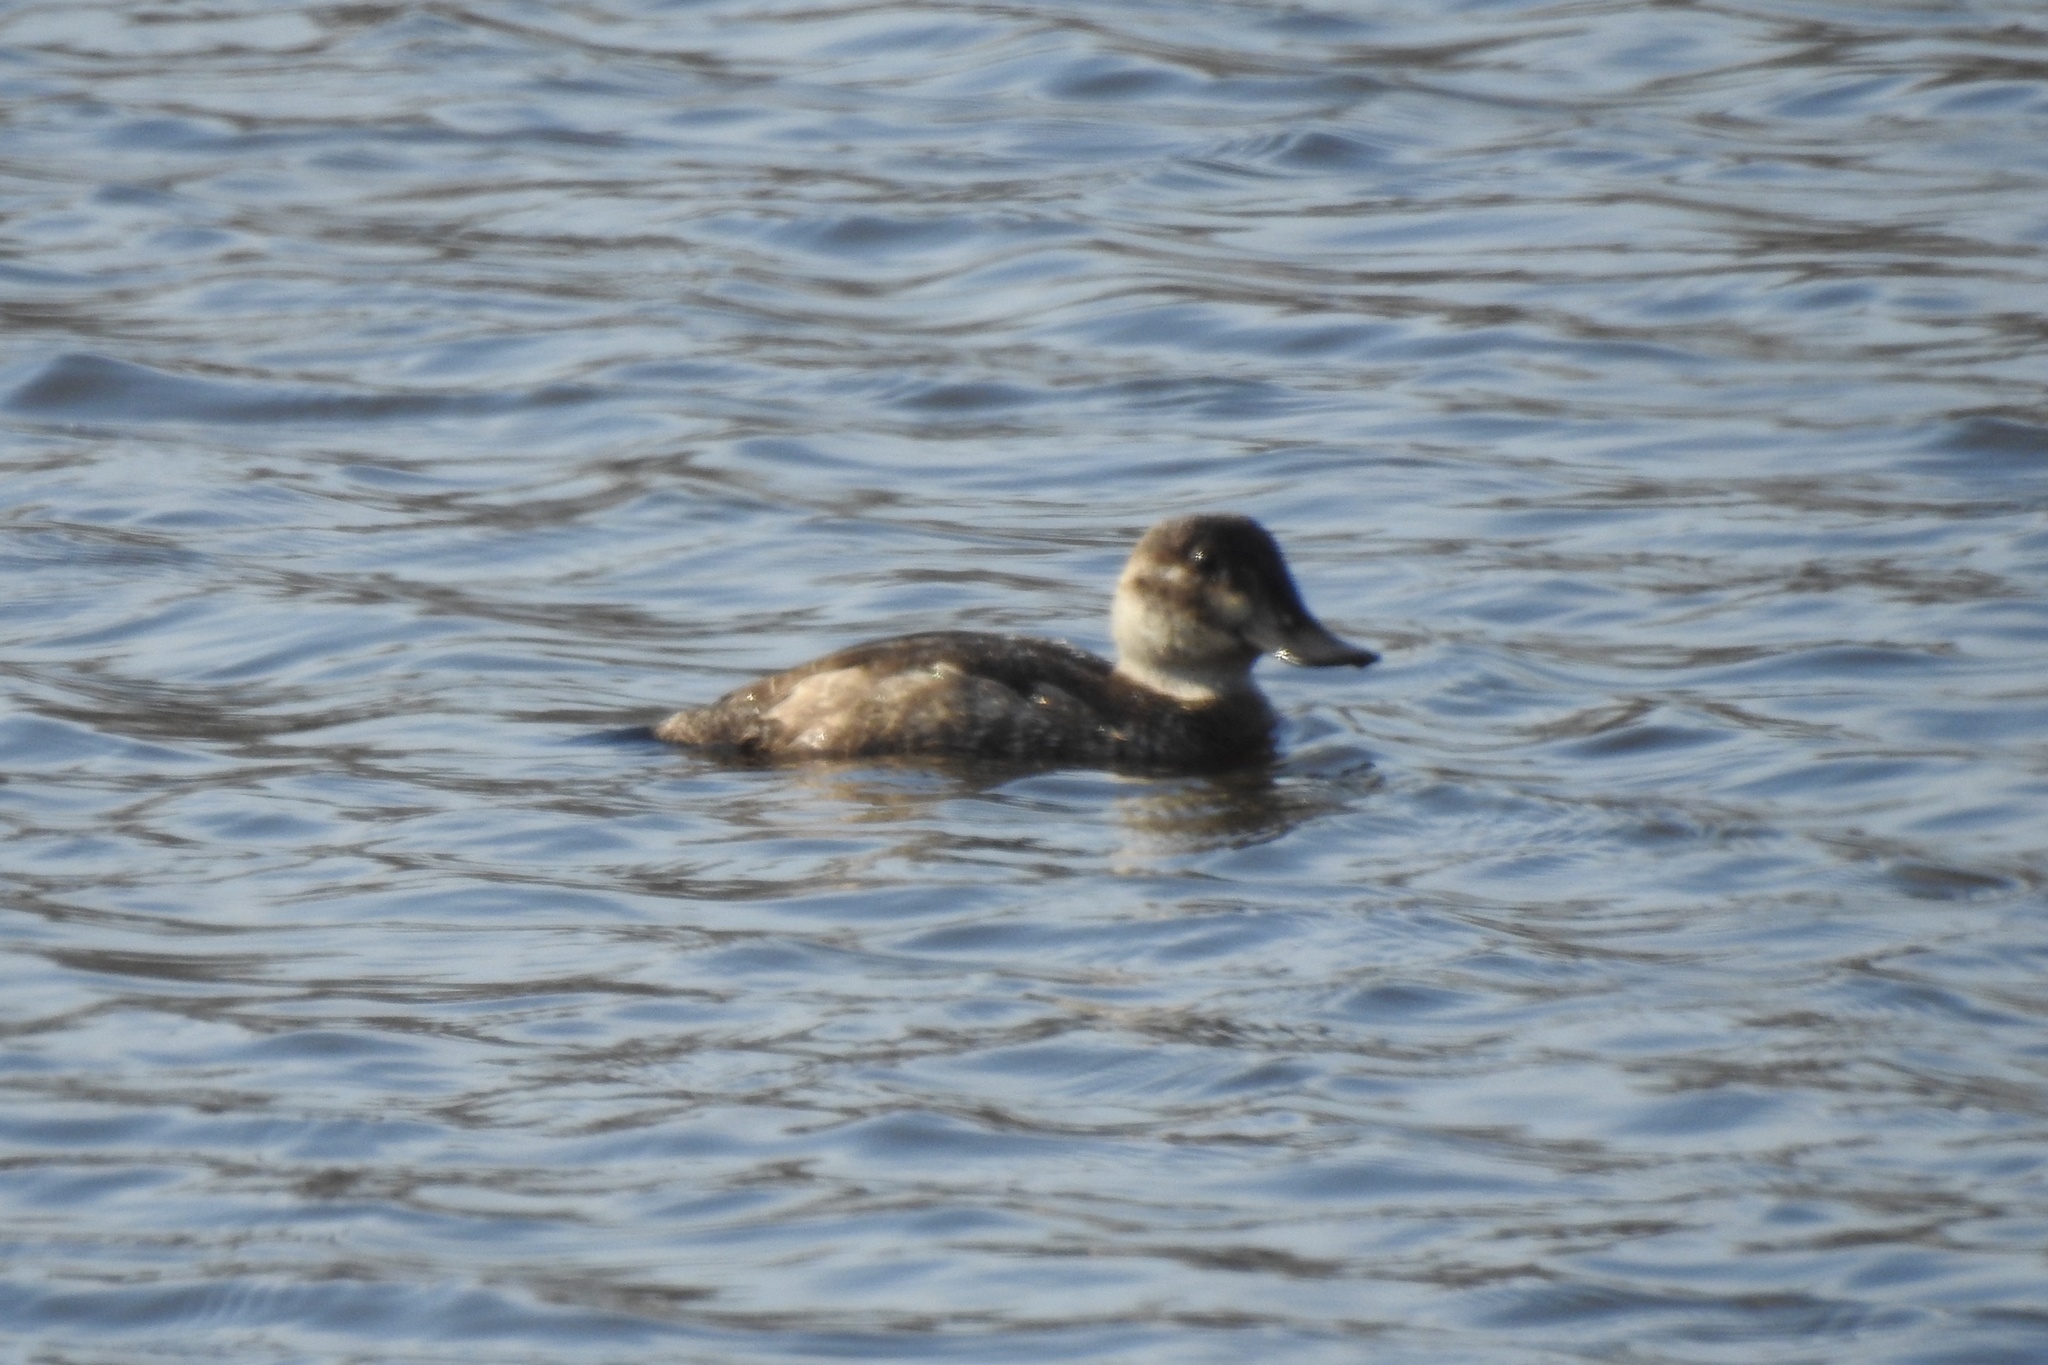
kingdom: Animalia
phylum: Chordata
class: Aves
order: Anseriformes
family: Anatidae
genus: Oxyura
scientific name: Oxyura jamaicensis
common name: Ruddy duck
